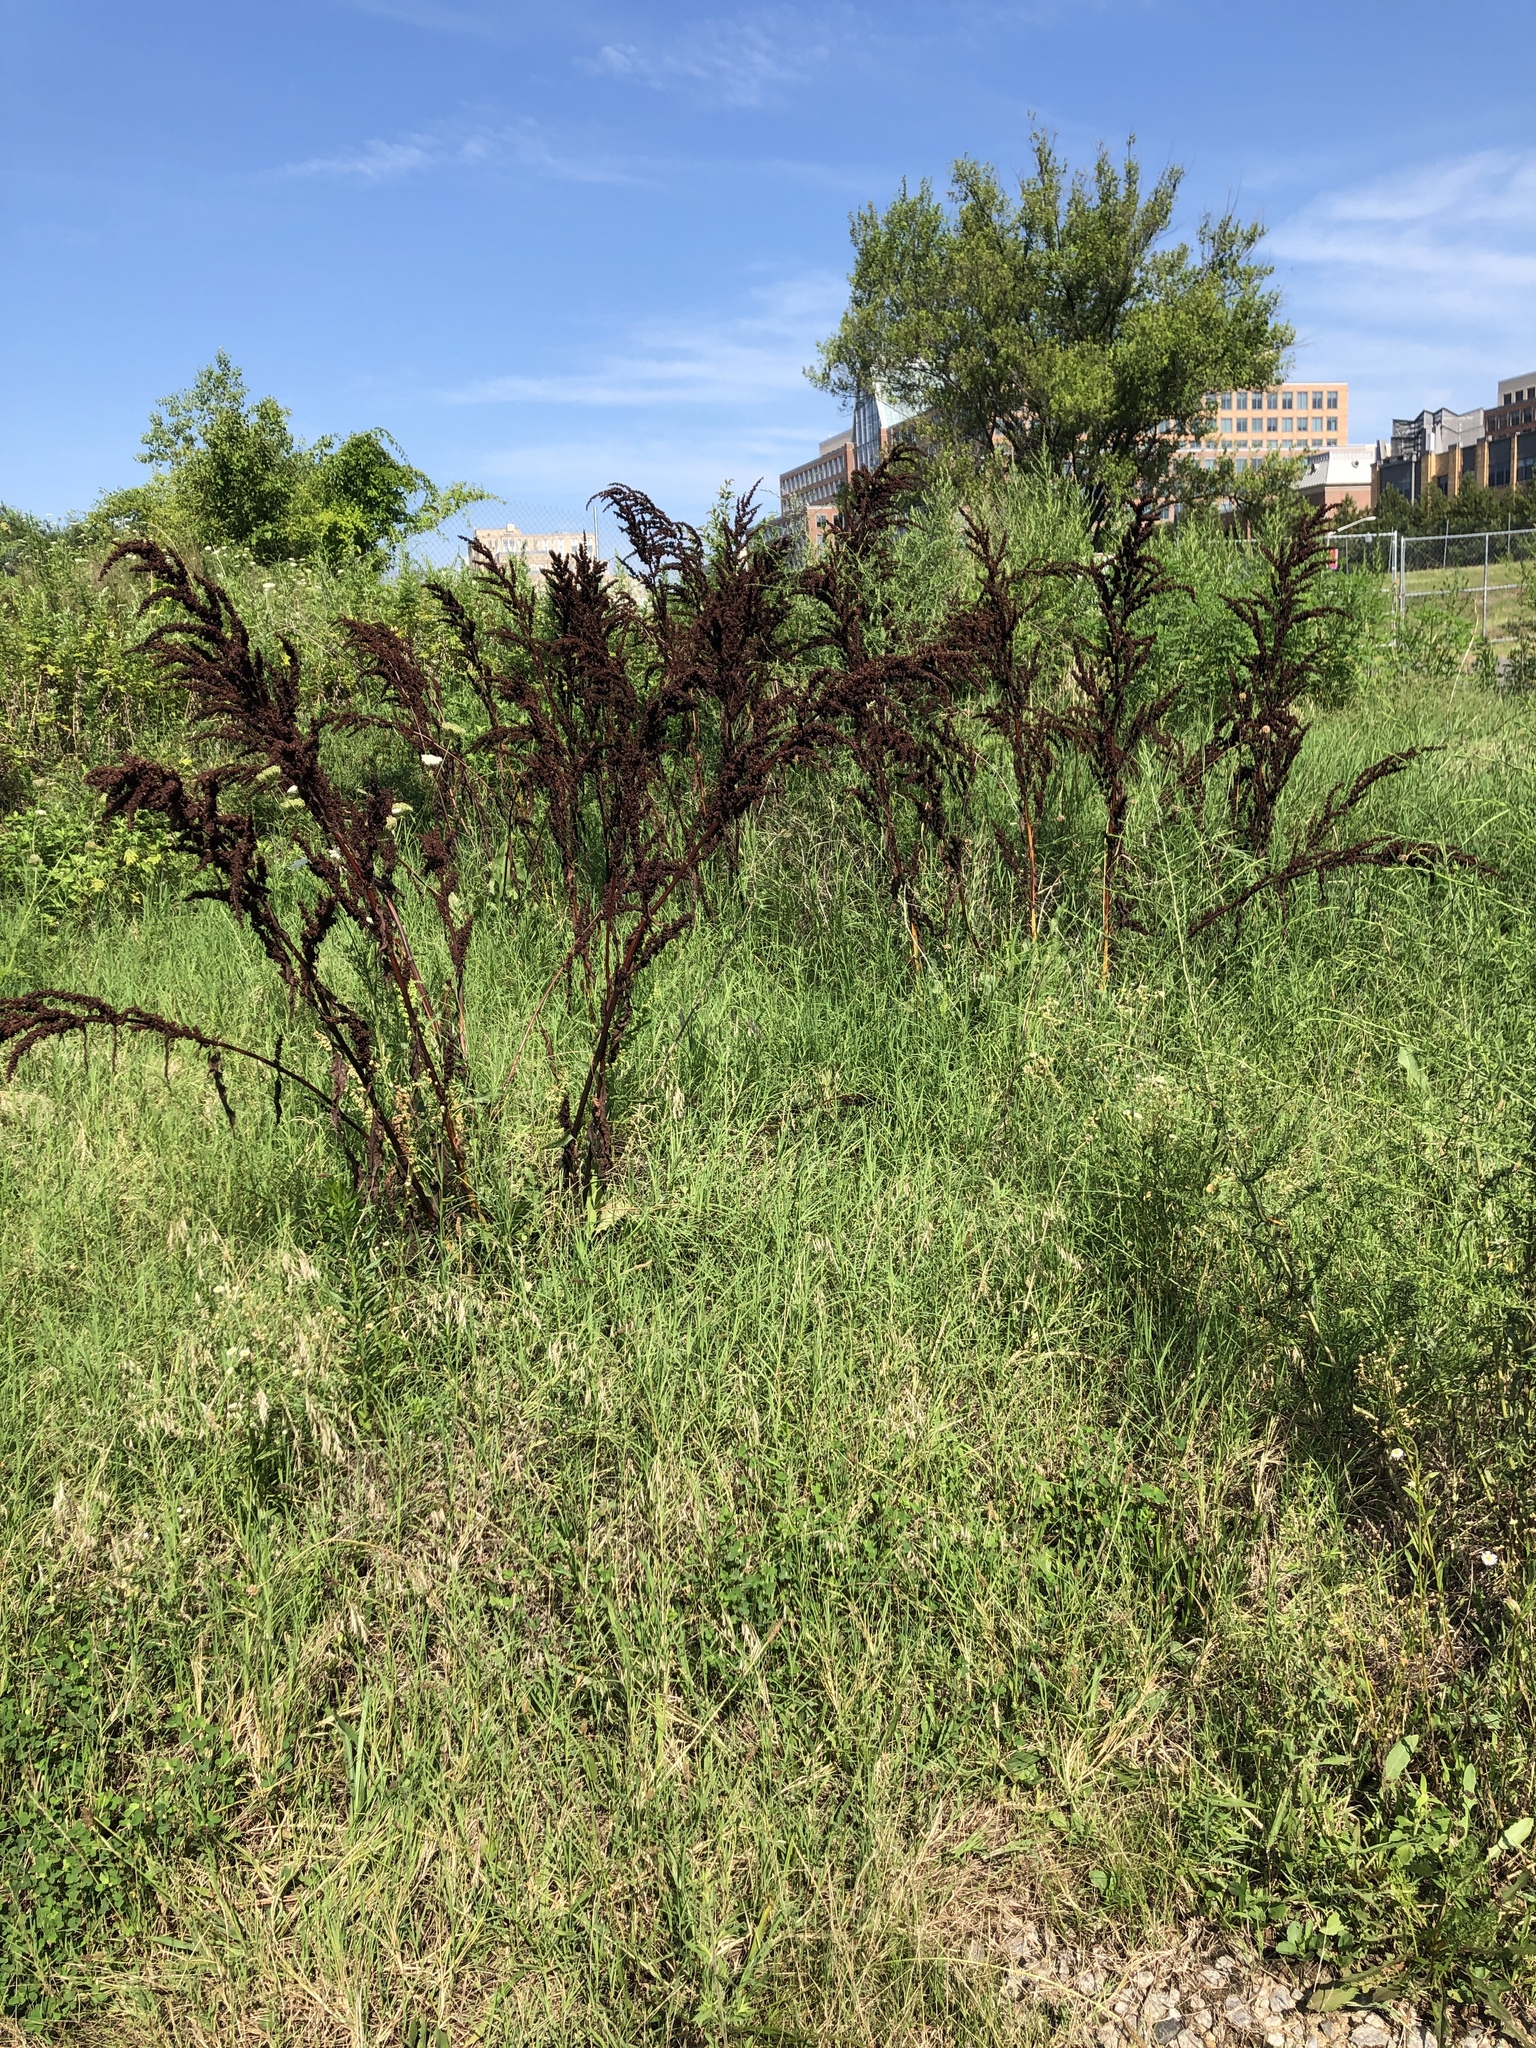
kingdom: Plantae
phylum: Tracheophyta
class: Magnoliopsida
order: Caryophyllales
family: Polygonaceae
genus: Rumex
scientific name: Rumex crispus
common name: Curled dock
